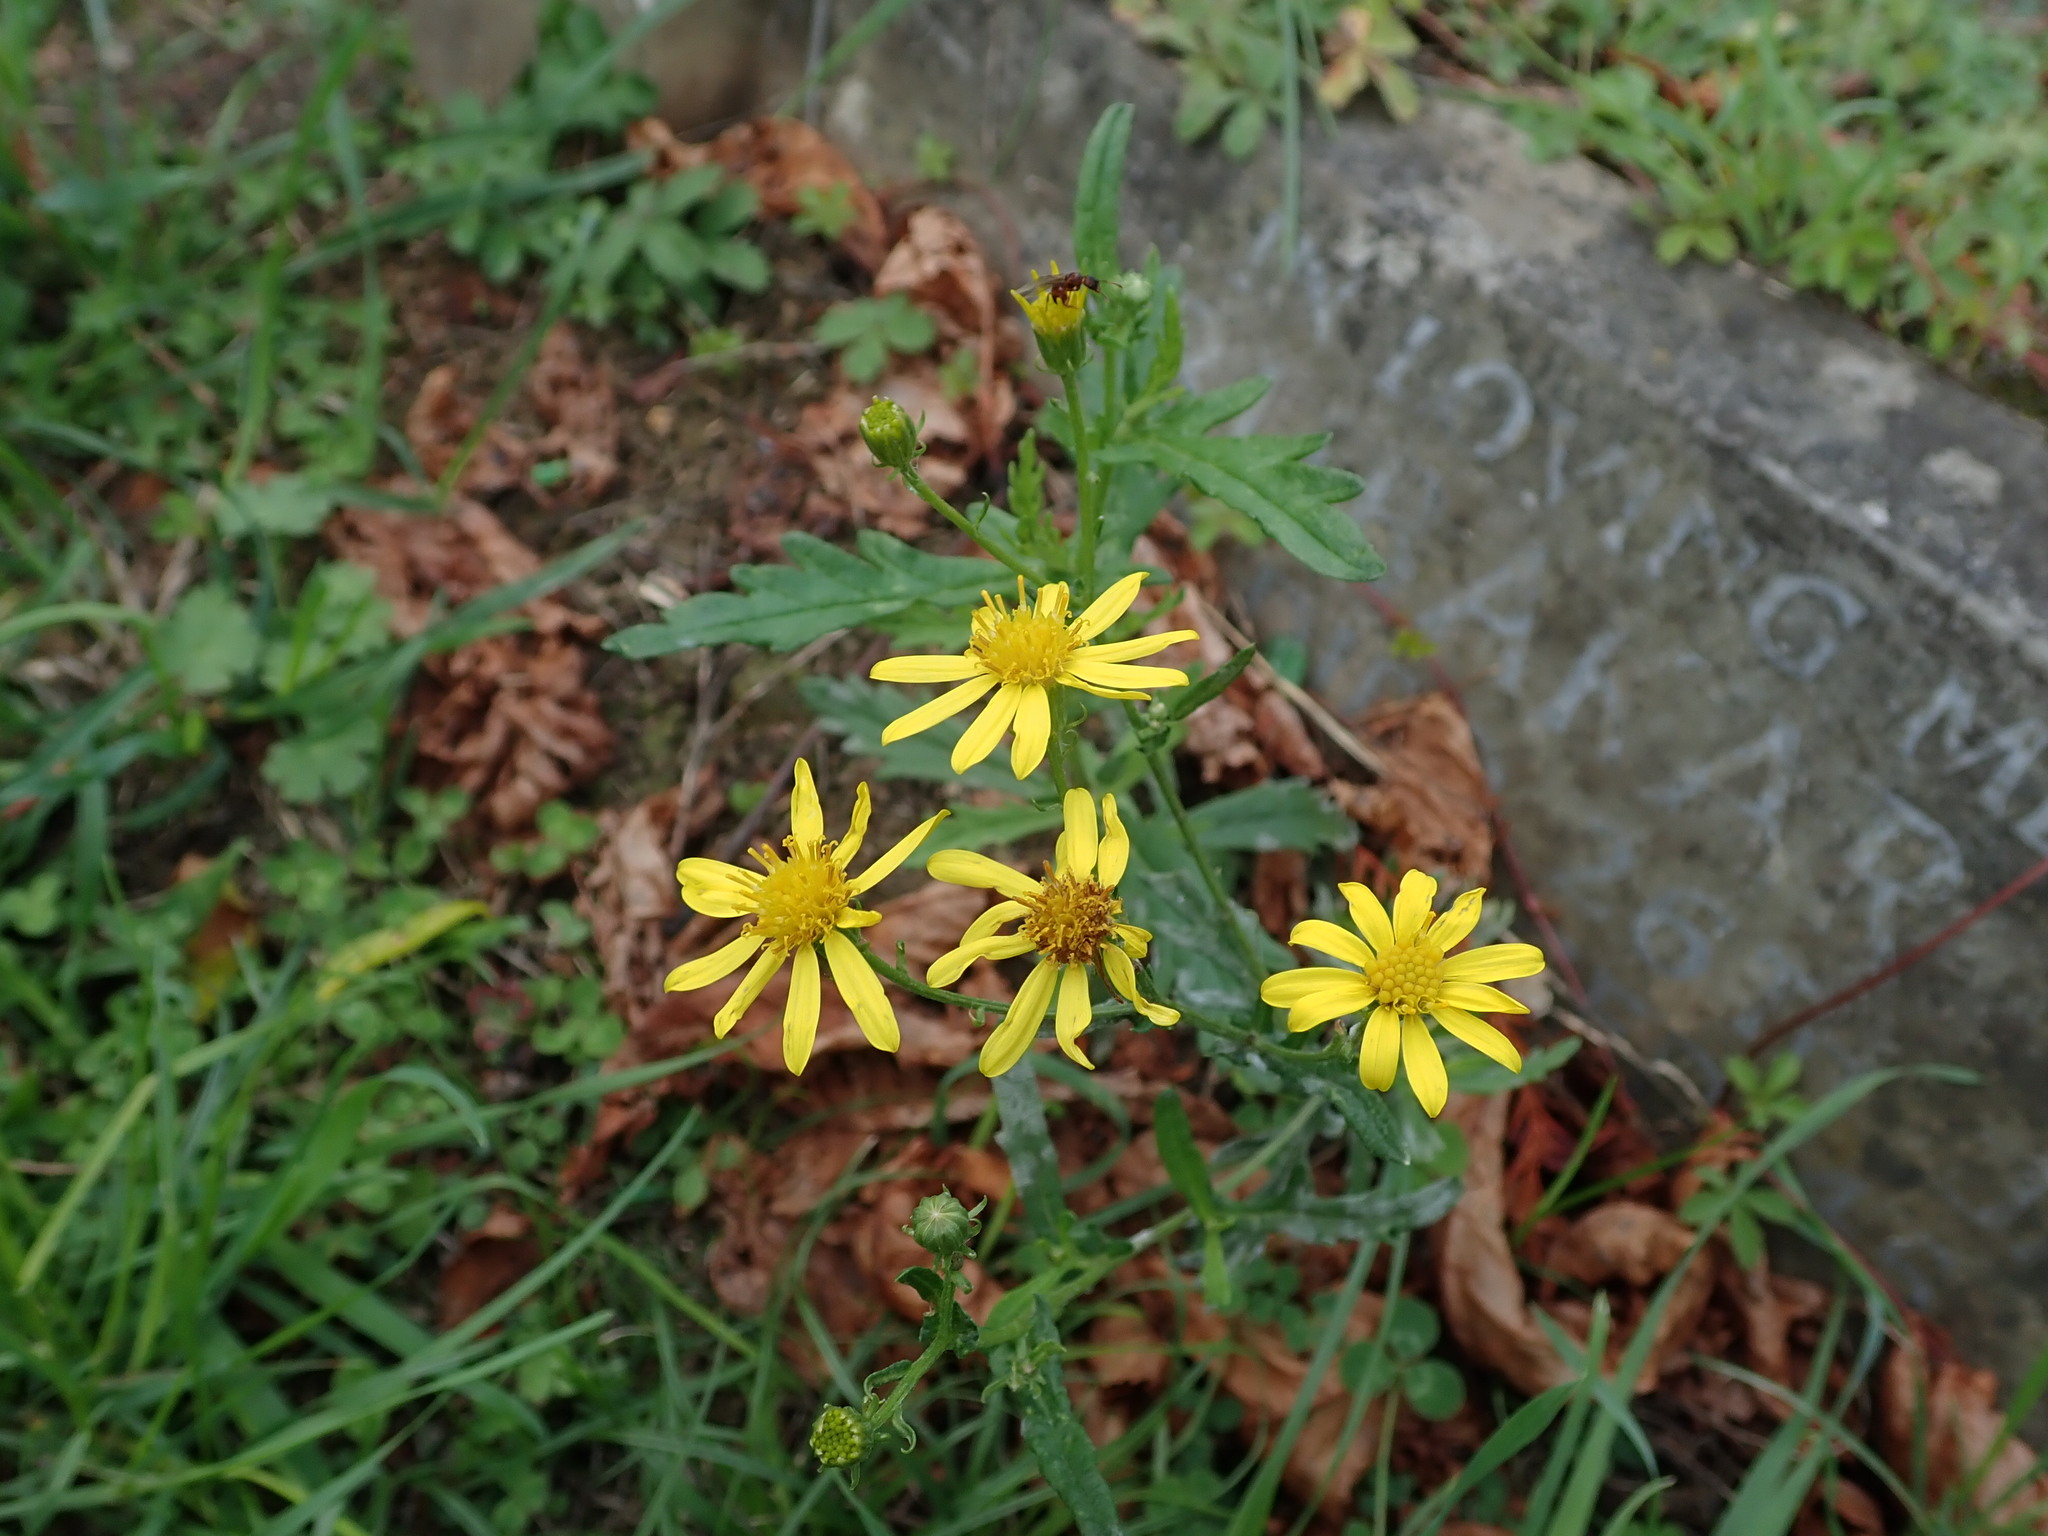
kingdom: Plantae
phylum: Tracheophyta
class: Magnoliopsida
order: Asterales
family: Asteraceae
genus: Senecio
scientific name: Senecio squalidus
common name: Oxford ragwort
